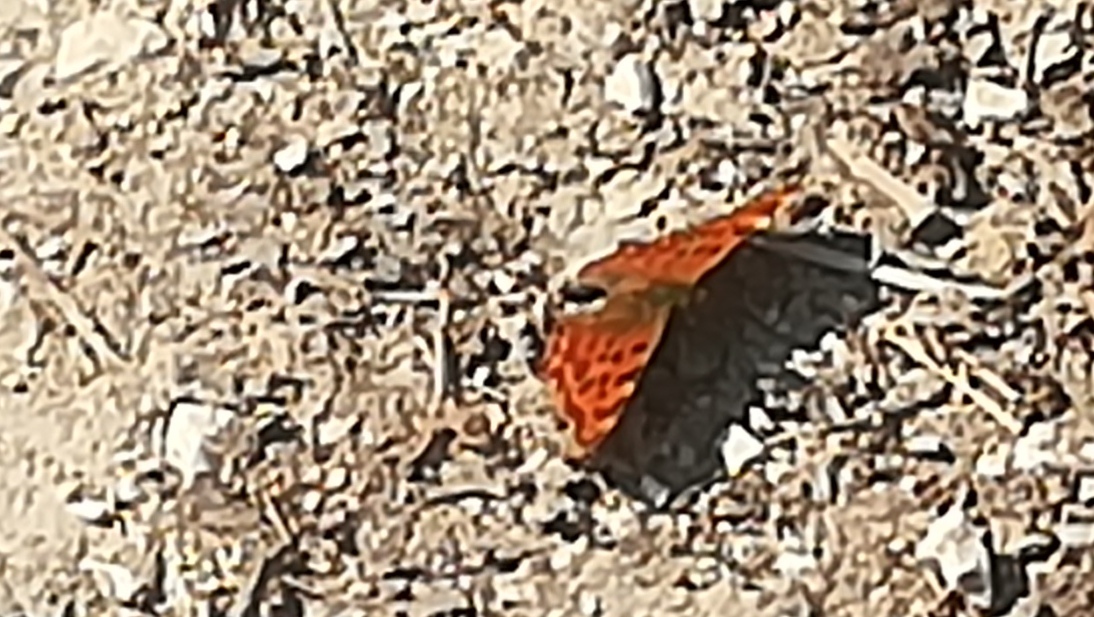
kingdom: Animalia
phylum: Arthropoda
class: Insecta
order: Lepidoptera
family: Nymphalidae
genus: Polygonia
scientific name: Polygonia c-album
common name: Comma
